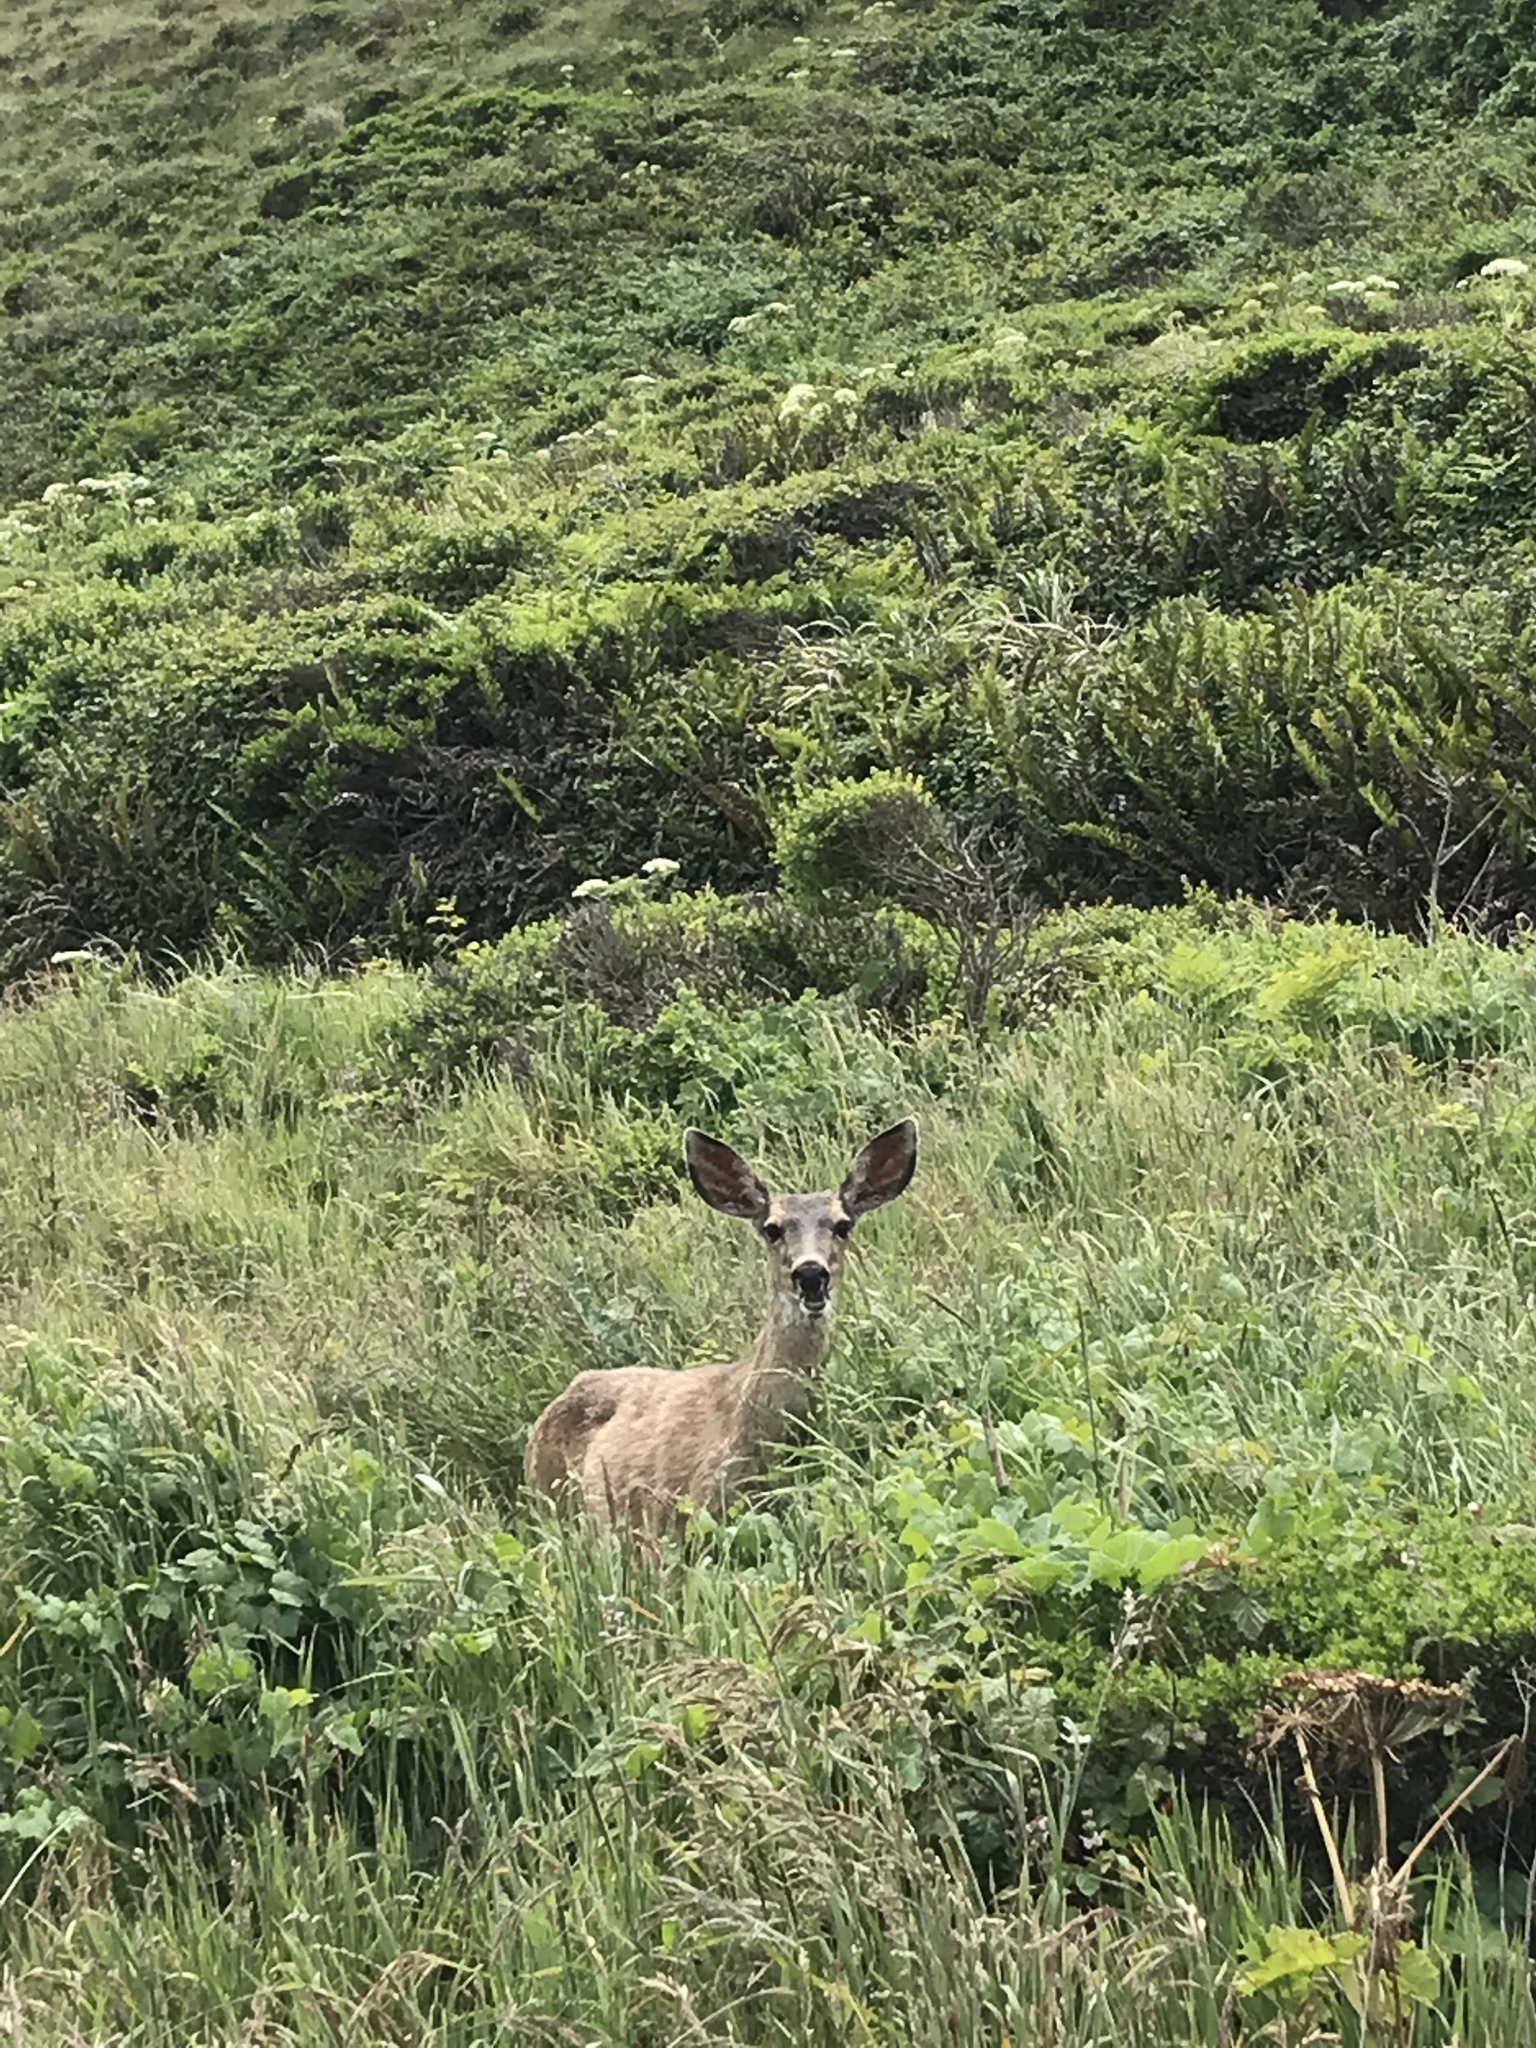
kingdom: Animalia
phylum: Chordata
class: Mammalia
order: Artiodactyla
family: Cervidae
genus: Odocoileus
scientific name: Odocoileus hemionus
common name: Mule deer
